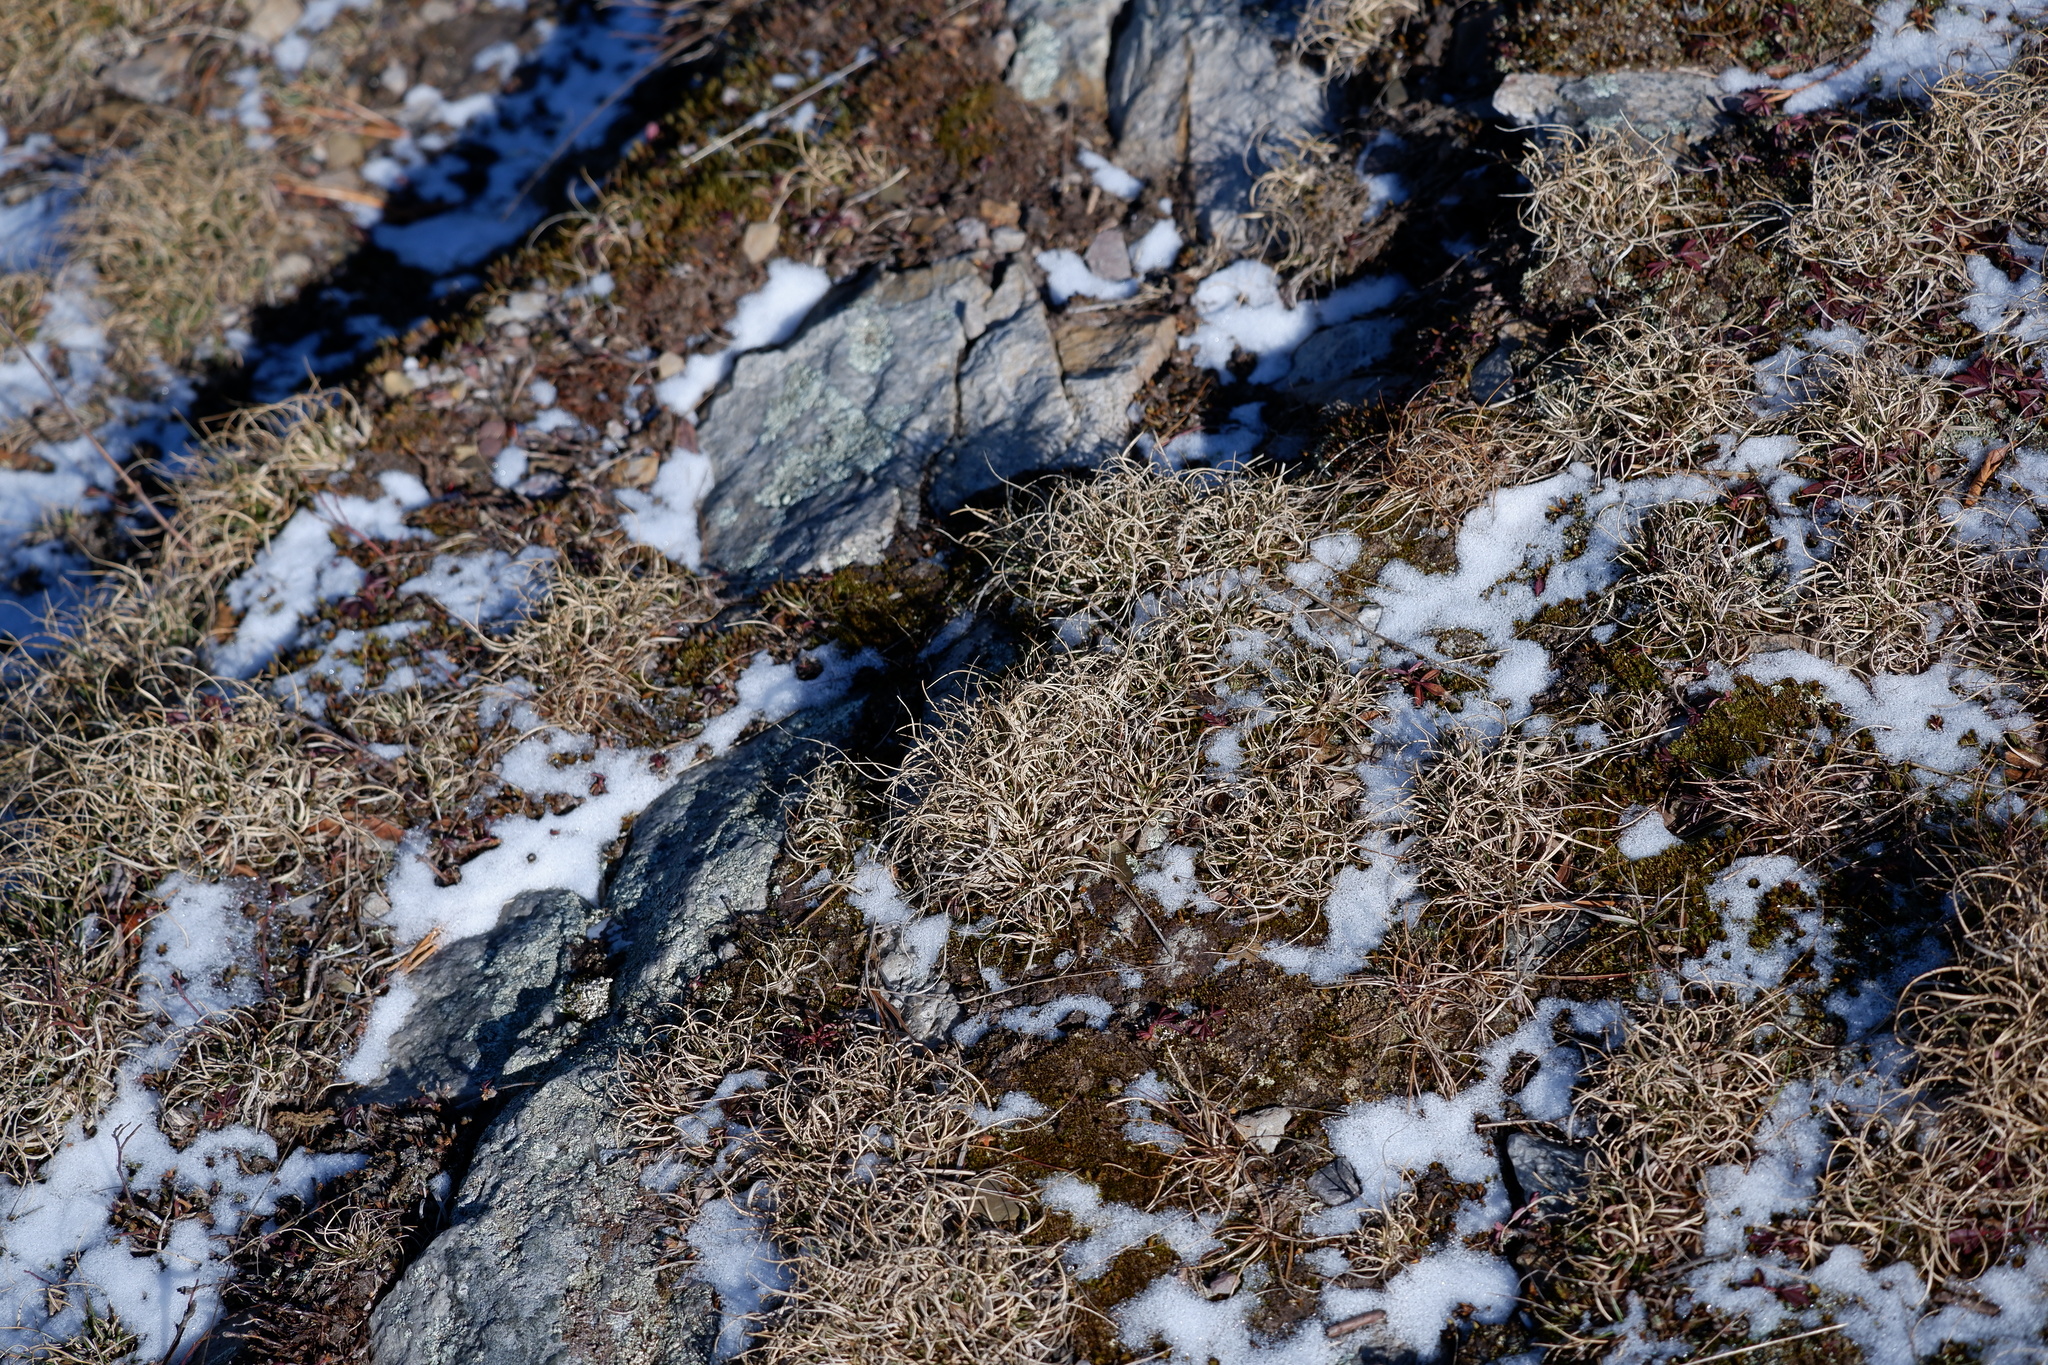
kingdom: Plantae
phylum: Tracheophyta
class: Liliopsida
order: Poales
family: Poaceae
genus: Danthonia
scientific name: Danthonia spicata
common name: Common wild oatgrass
